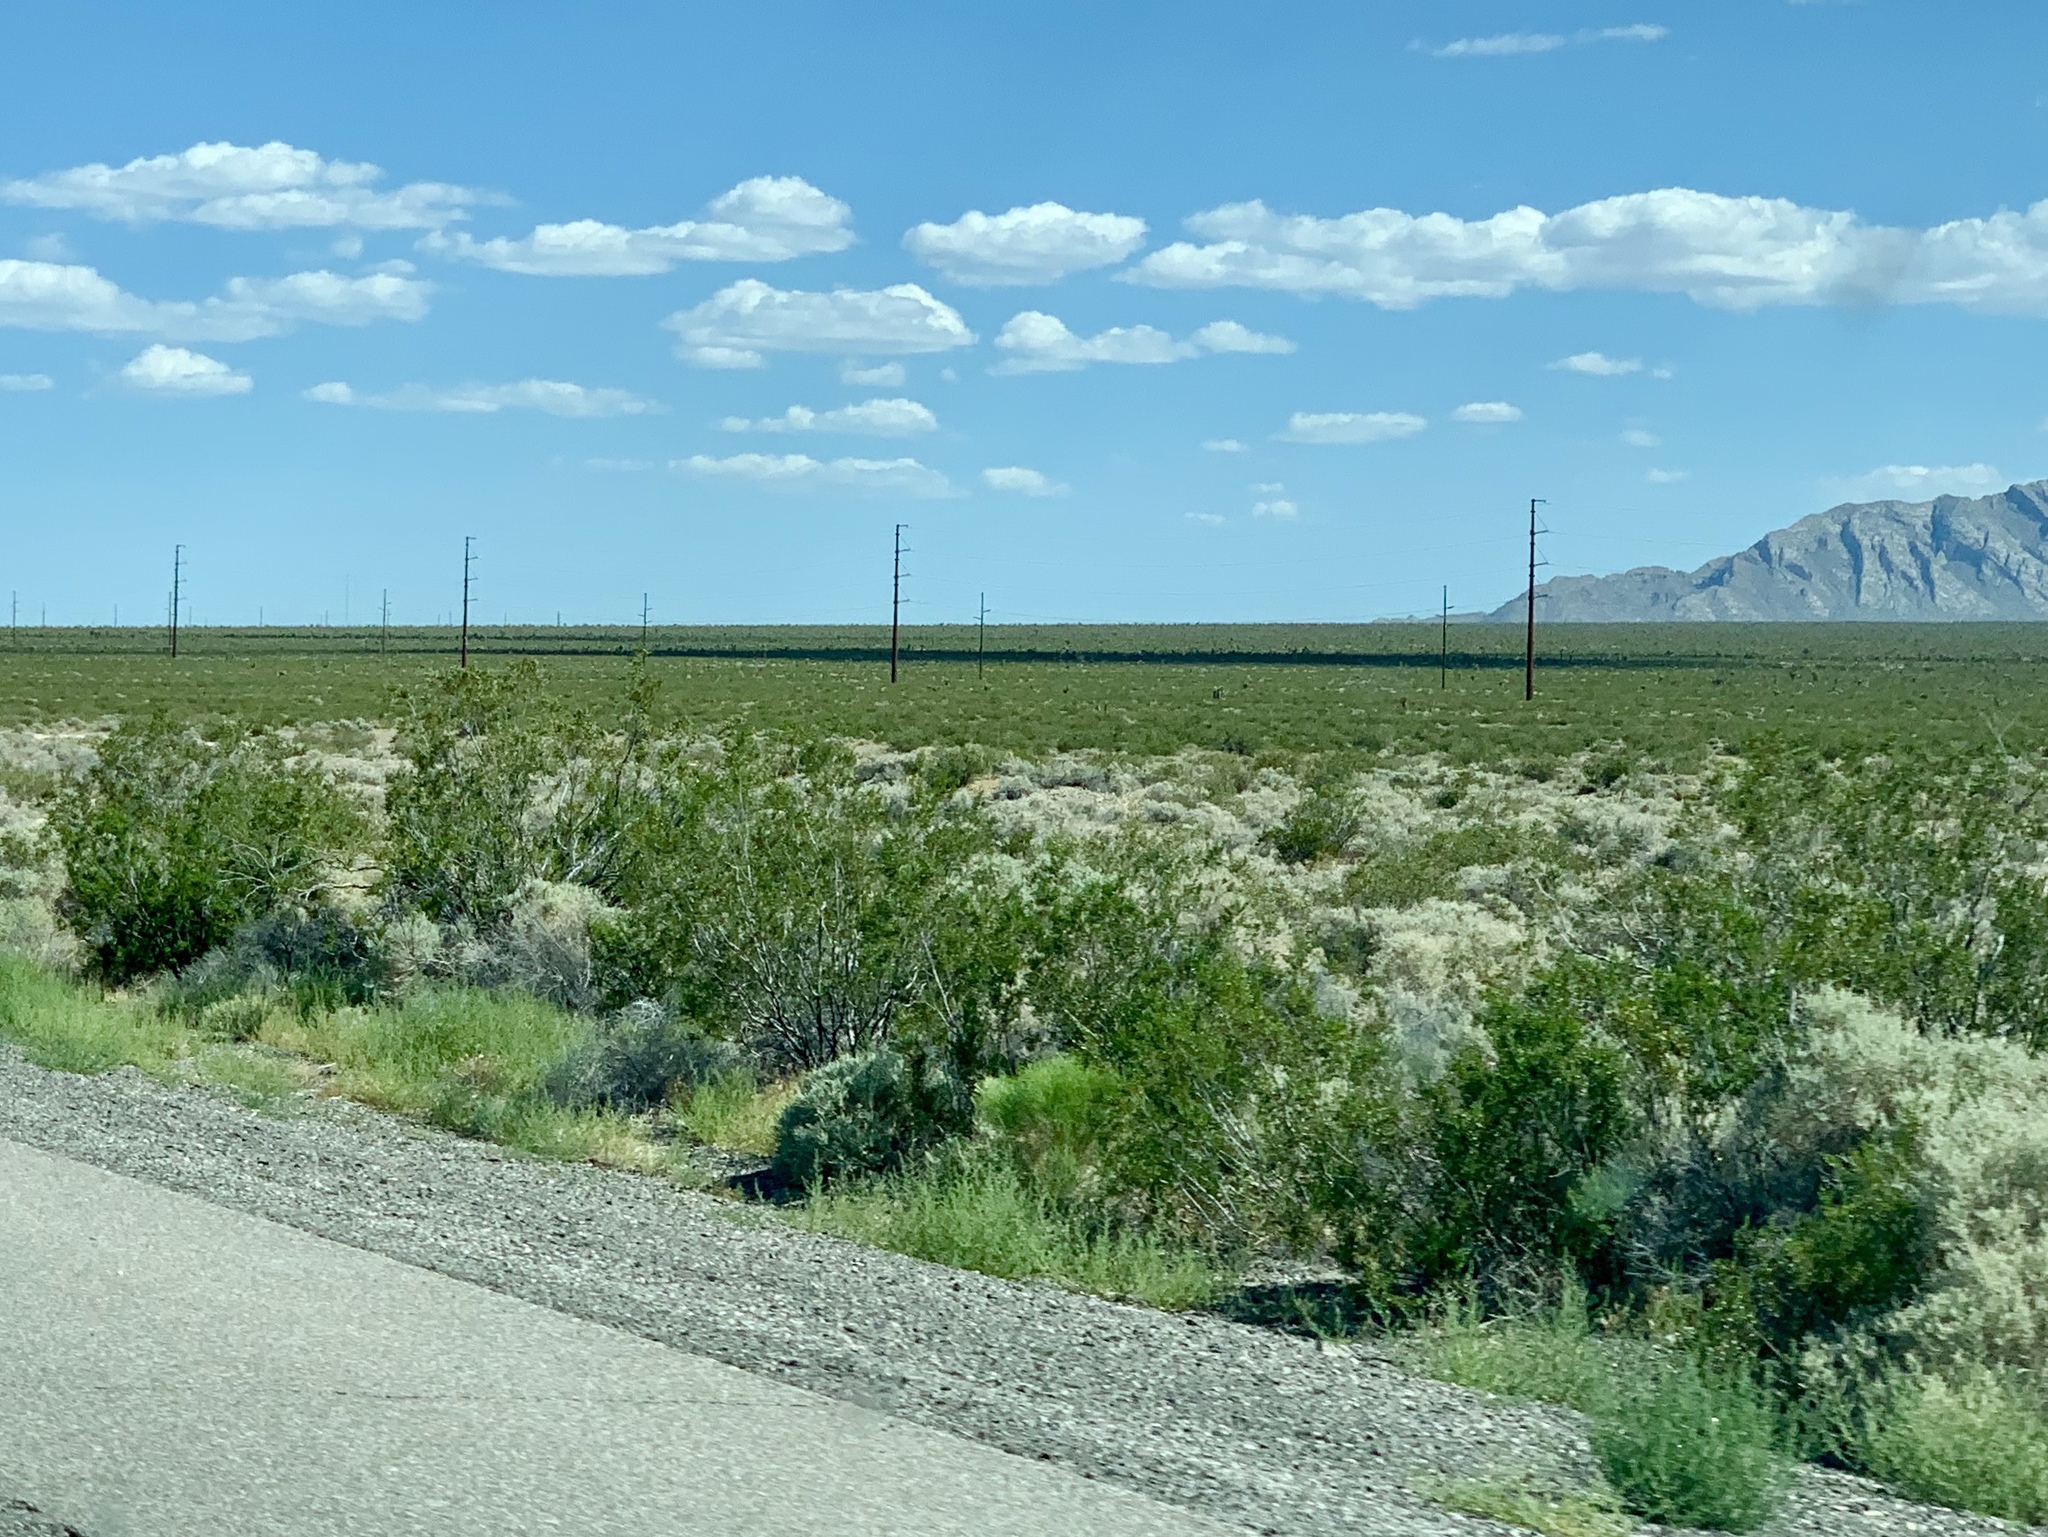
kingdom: Plantae
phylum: Tracheophyta
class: Magnoliopsida
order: Zygophyllales
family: Zygophyllaceae
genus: Larrea
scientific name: Larrea tridentata
